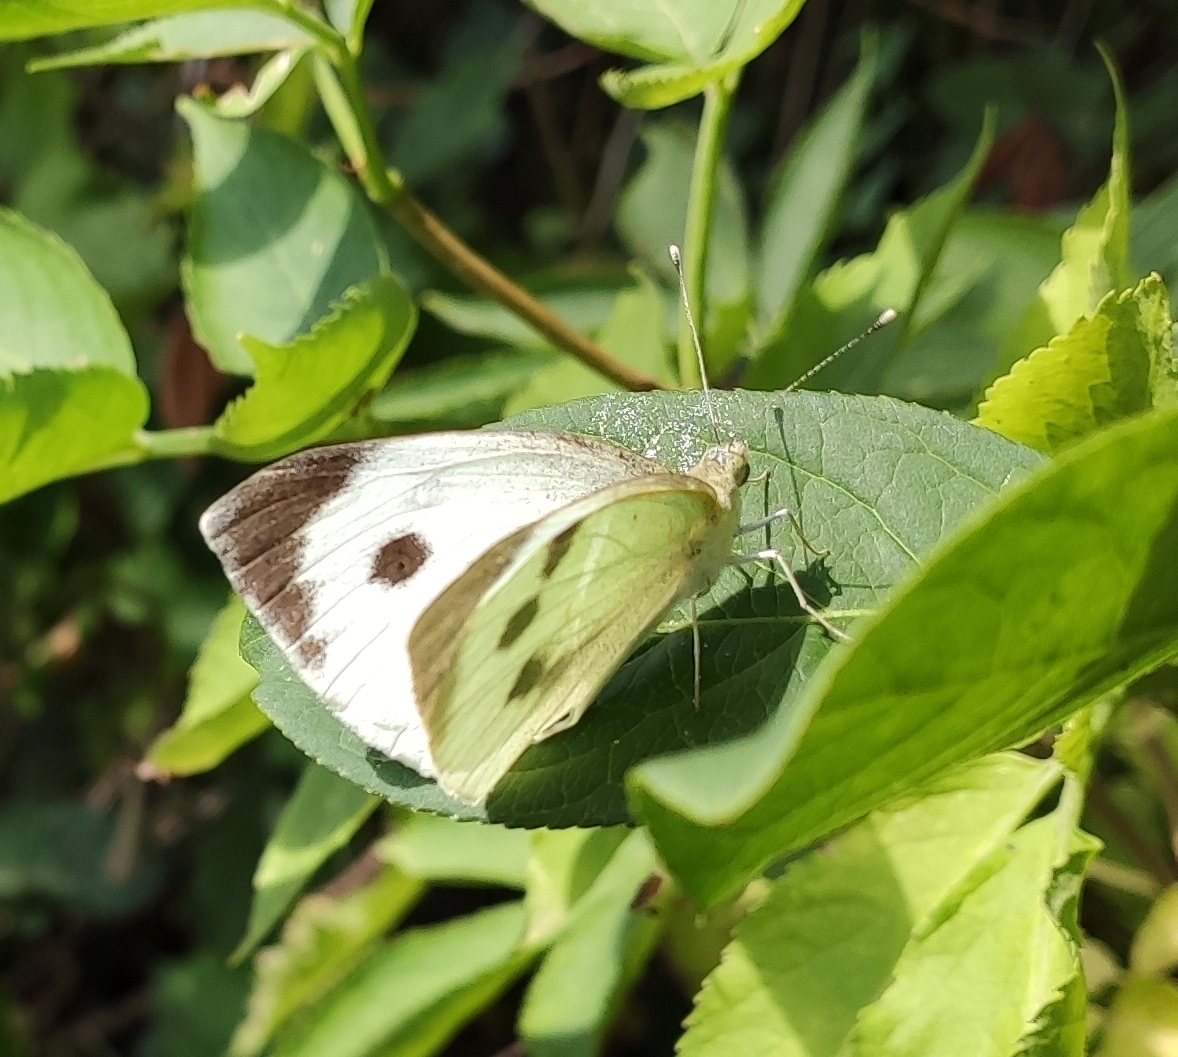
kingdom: Animalia
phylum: Arthropoda
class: Insecta
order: Lepidoptera
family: Pieridae
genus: Pieris
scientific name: Pieris brassicae
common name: Large white
